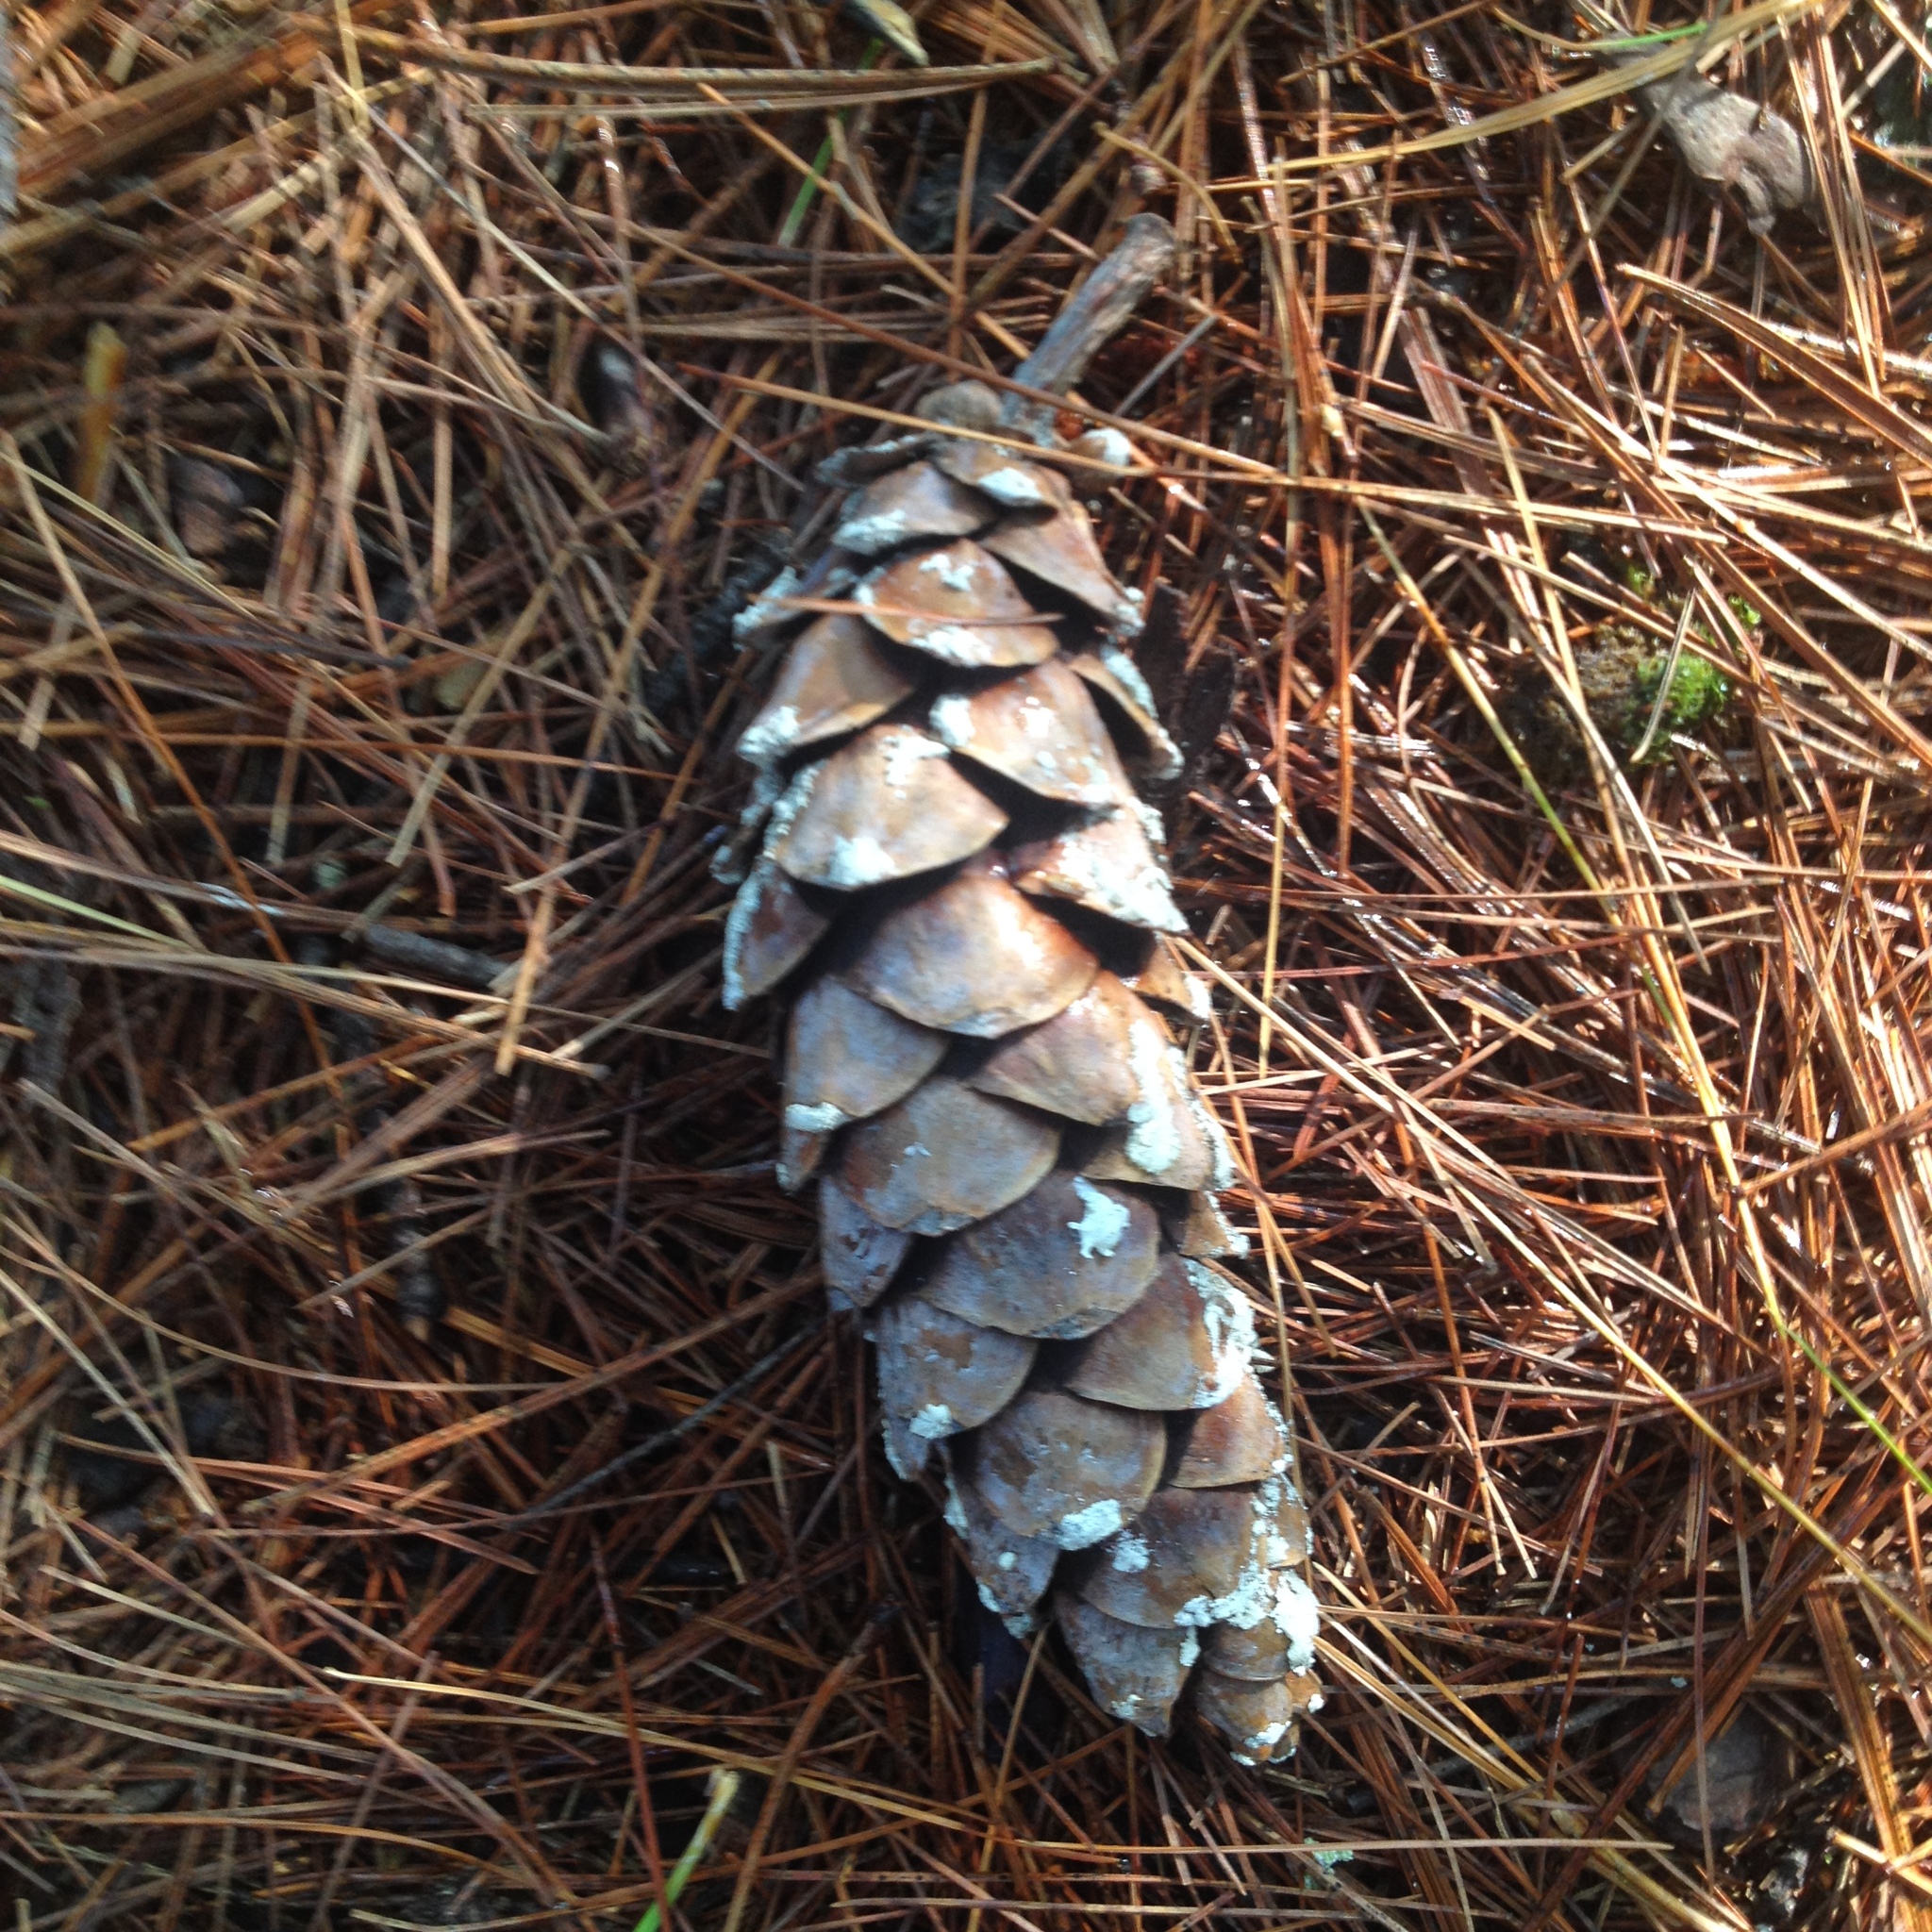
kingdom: Plantae
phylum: Tracheophyta
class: Pinopsida
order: Pinales
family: Pinaceae
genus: Pinus
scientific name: Pinus strobus
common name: Weymouth pine
